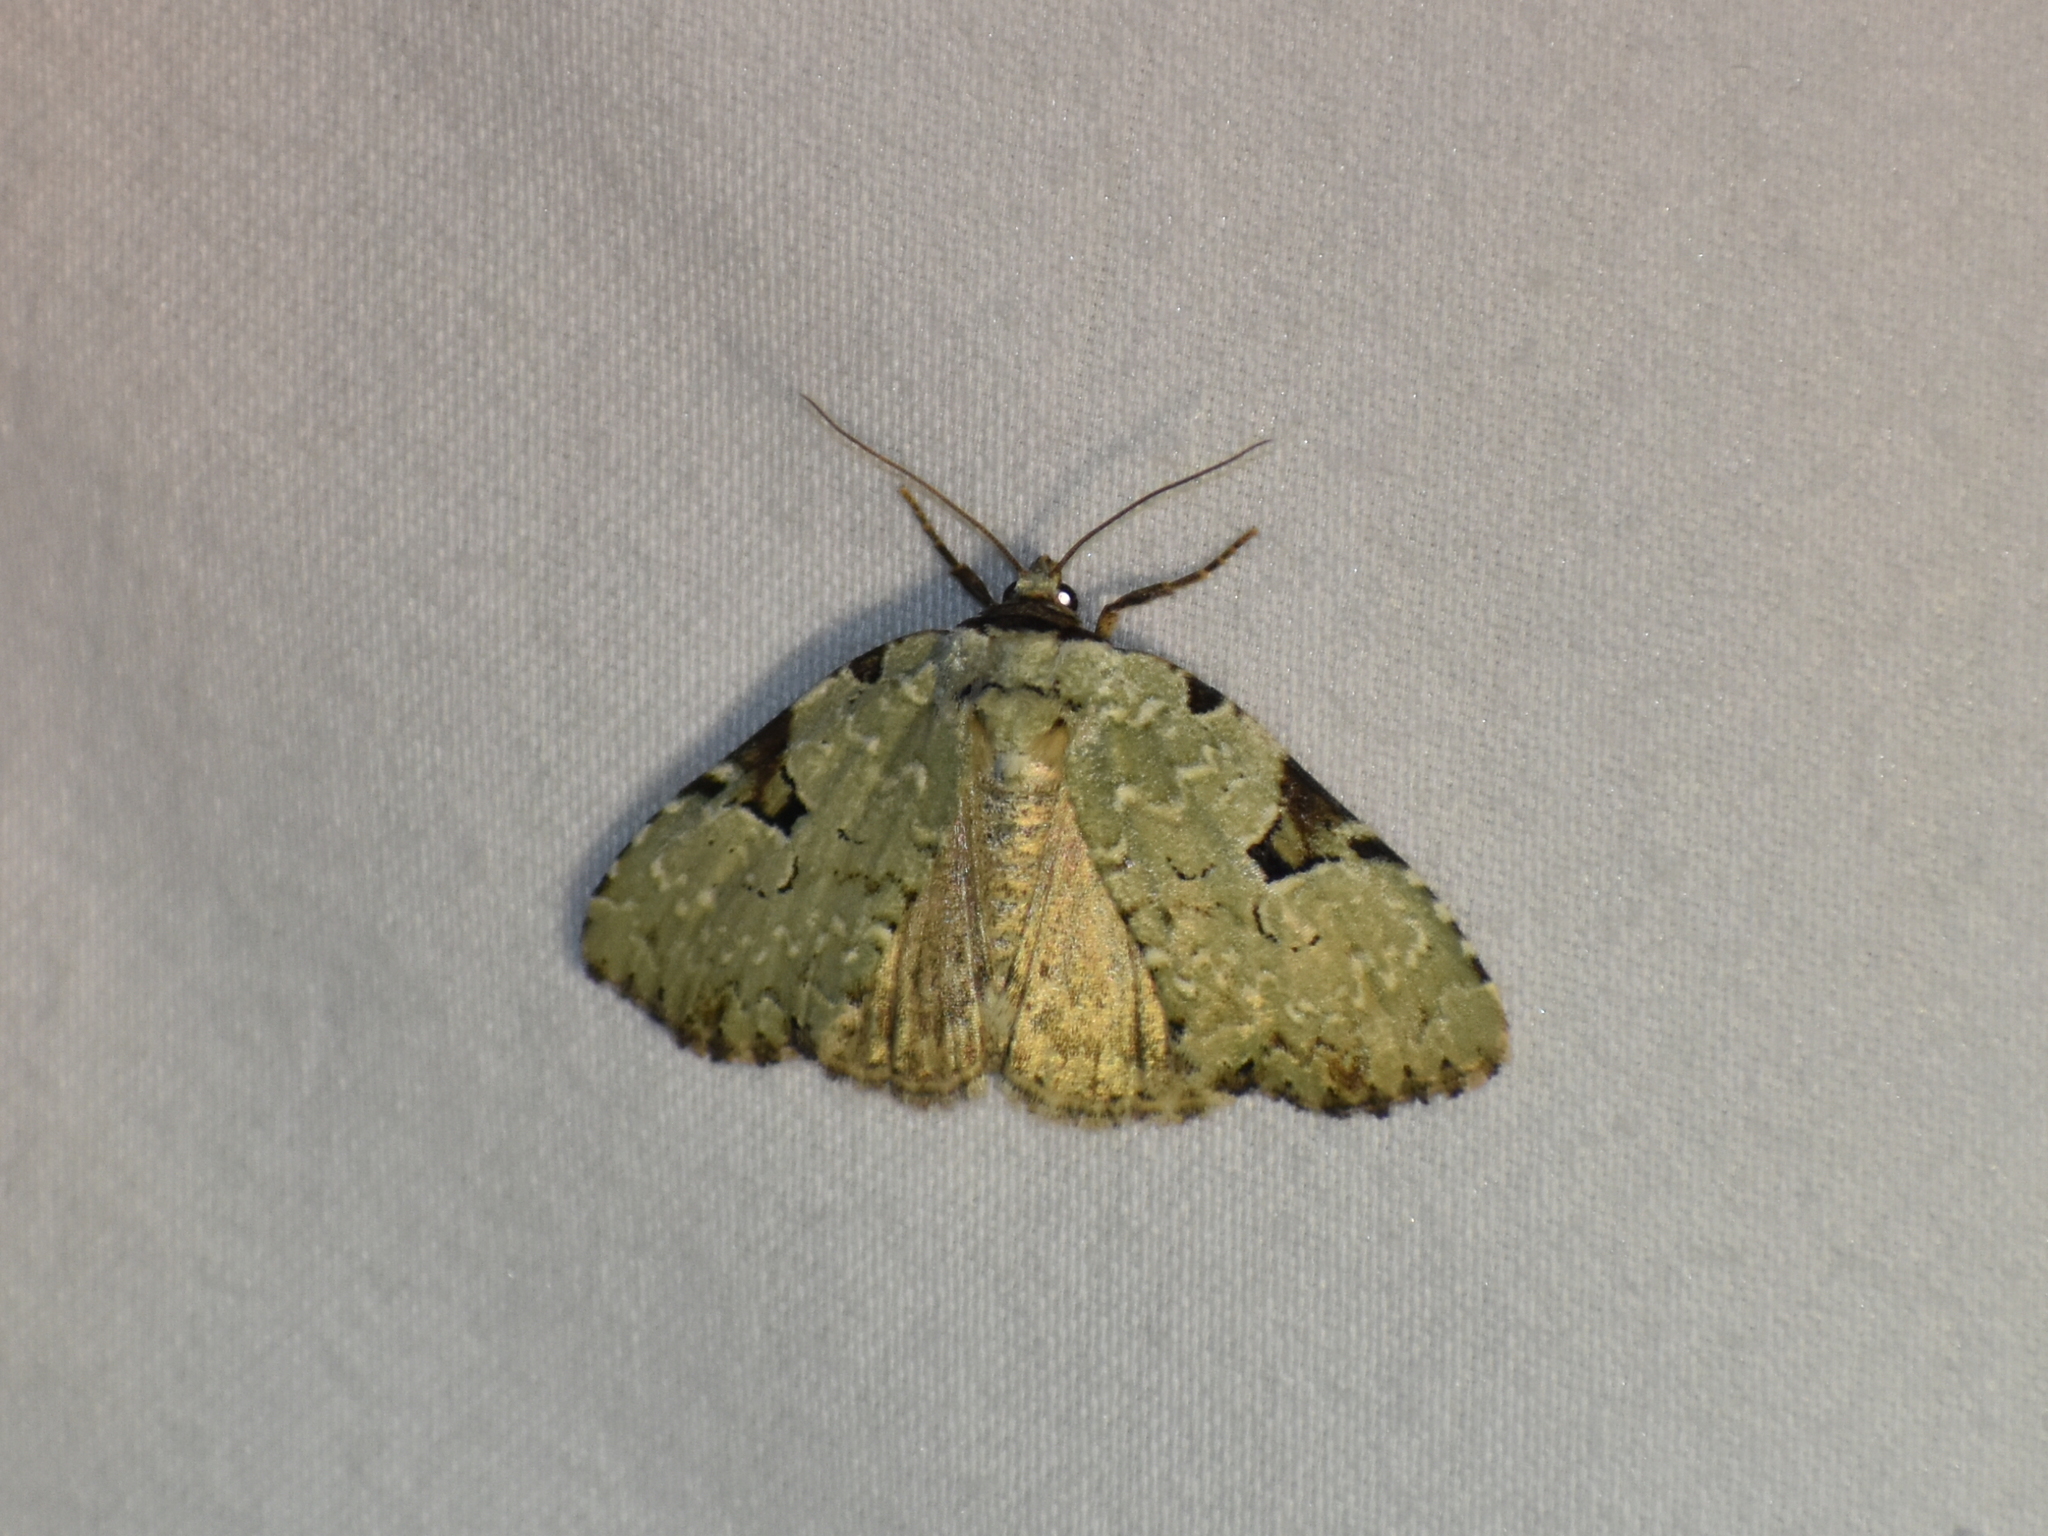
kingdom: Animalia
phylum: Arthropoda
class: Insecta
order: Lepidoptera
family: Noctuidae
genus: Leuconycta
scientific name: Leuconycta diphteroides
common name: Green leuconycta moth
